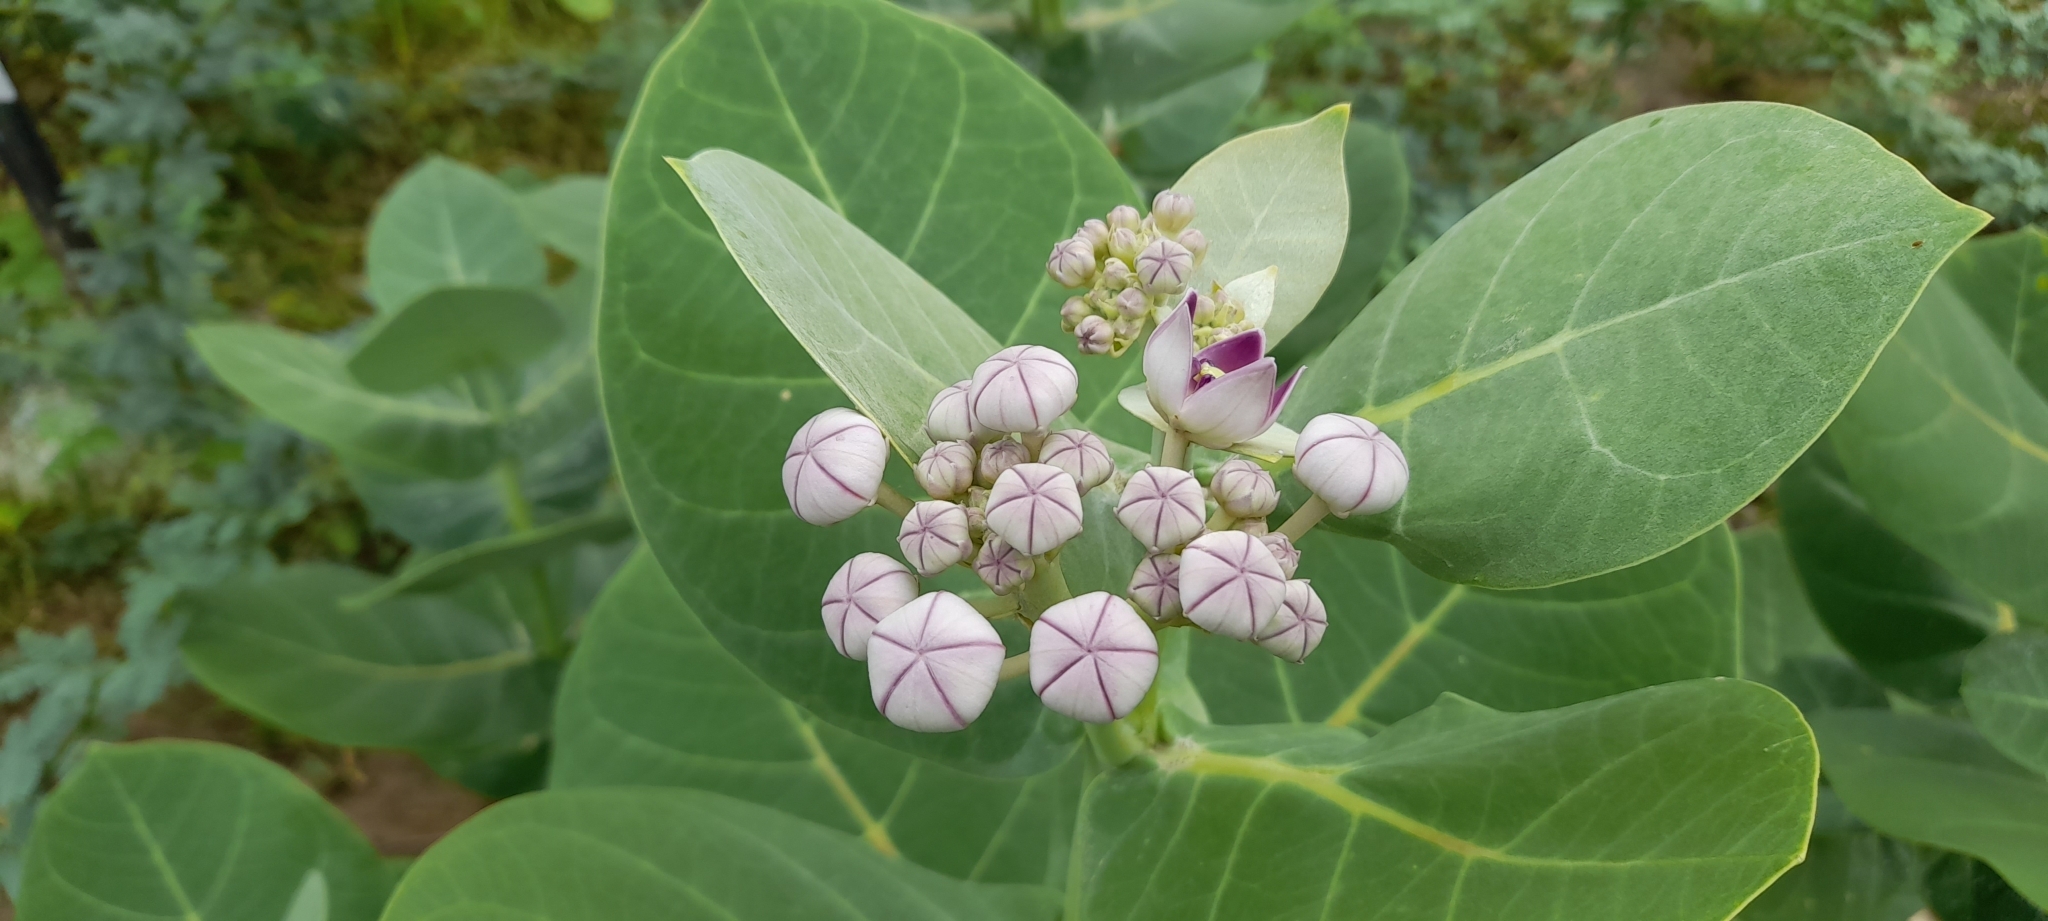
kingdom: Plantae
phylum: Tracheophyta
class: Magnoliopsida
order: Gentianales
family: Apocynaceae
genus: Calotropis
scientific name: Calotropis procera
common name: Roostertree
